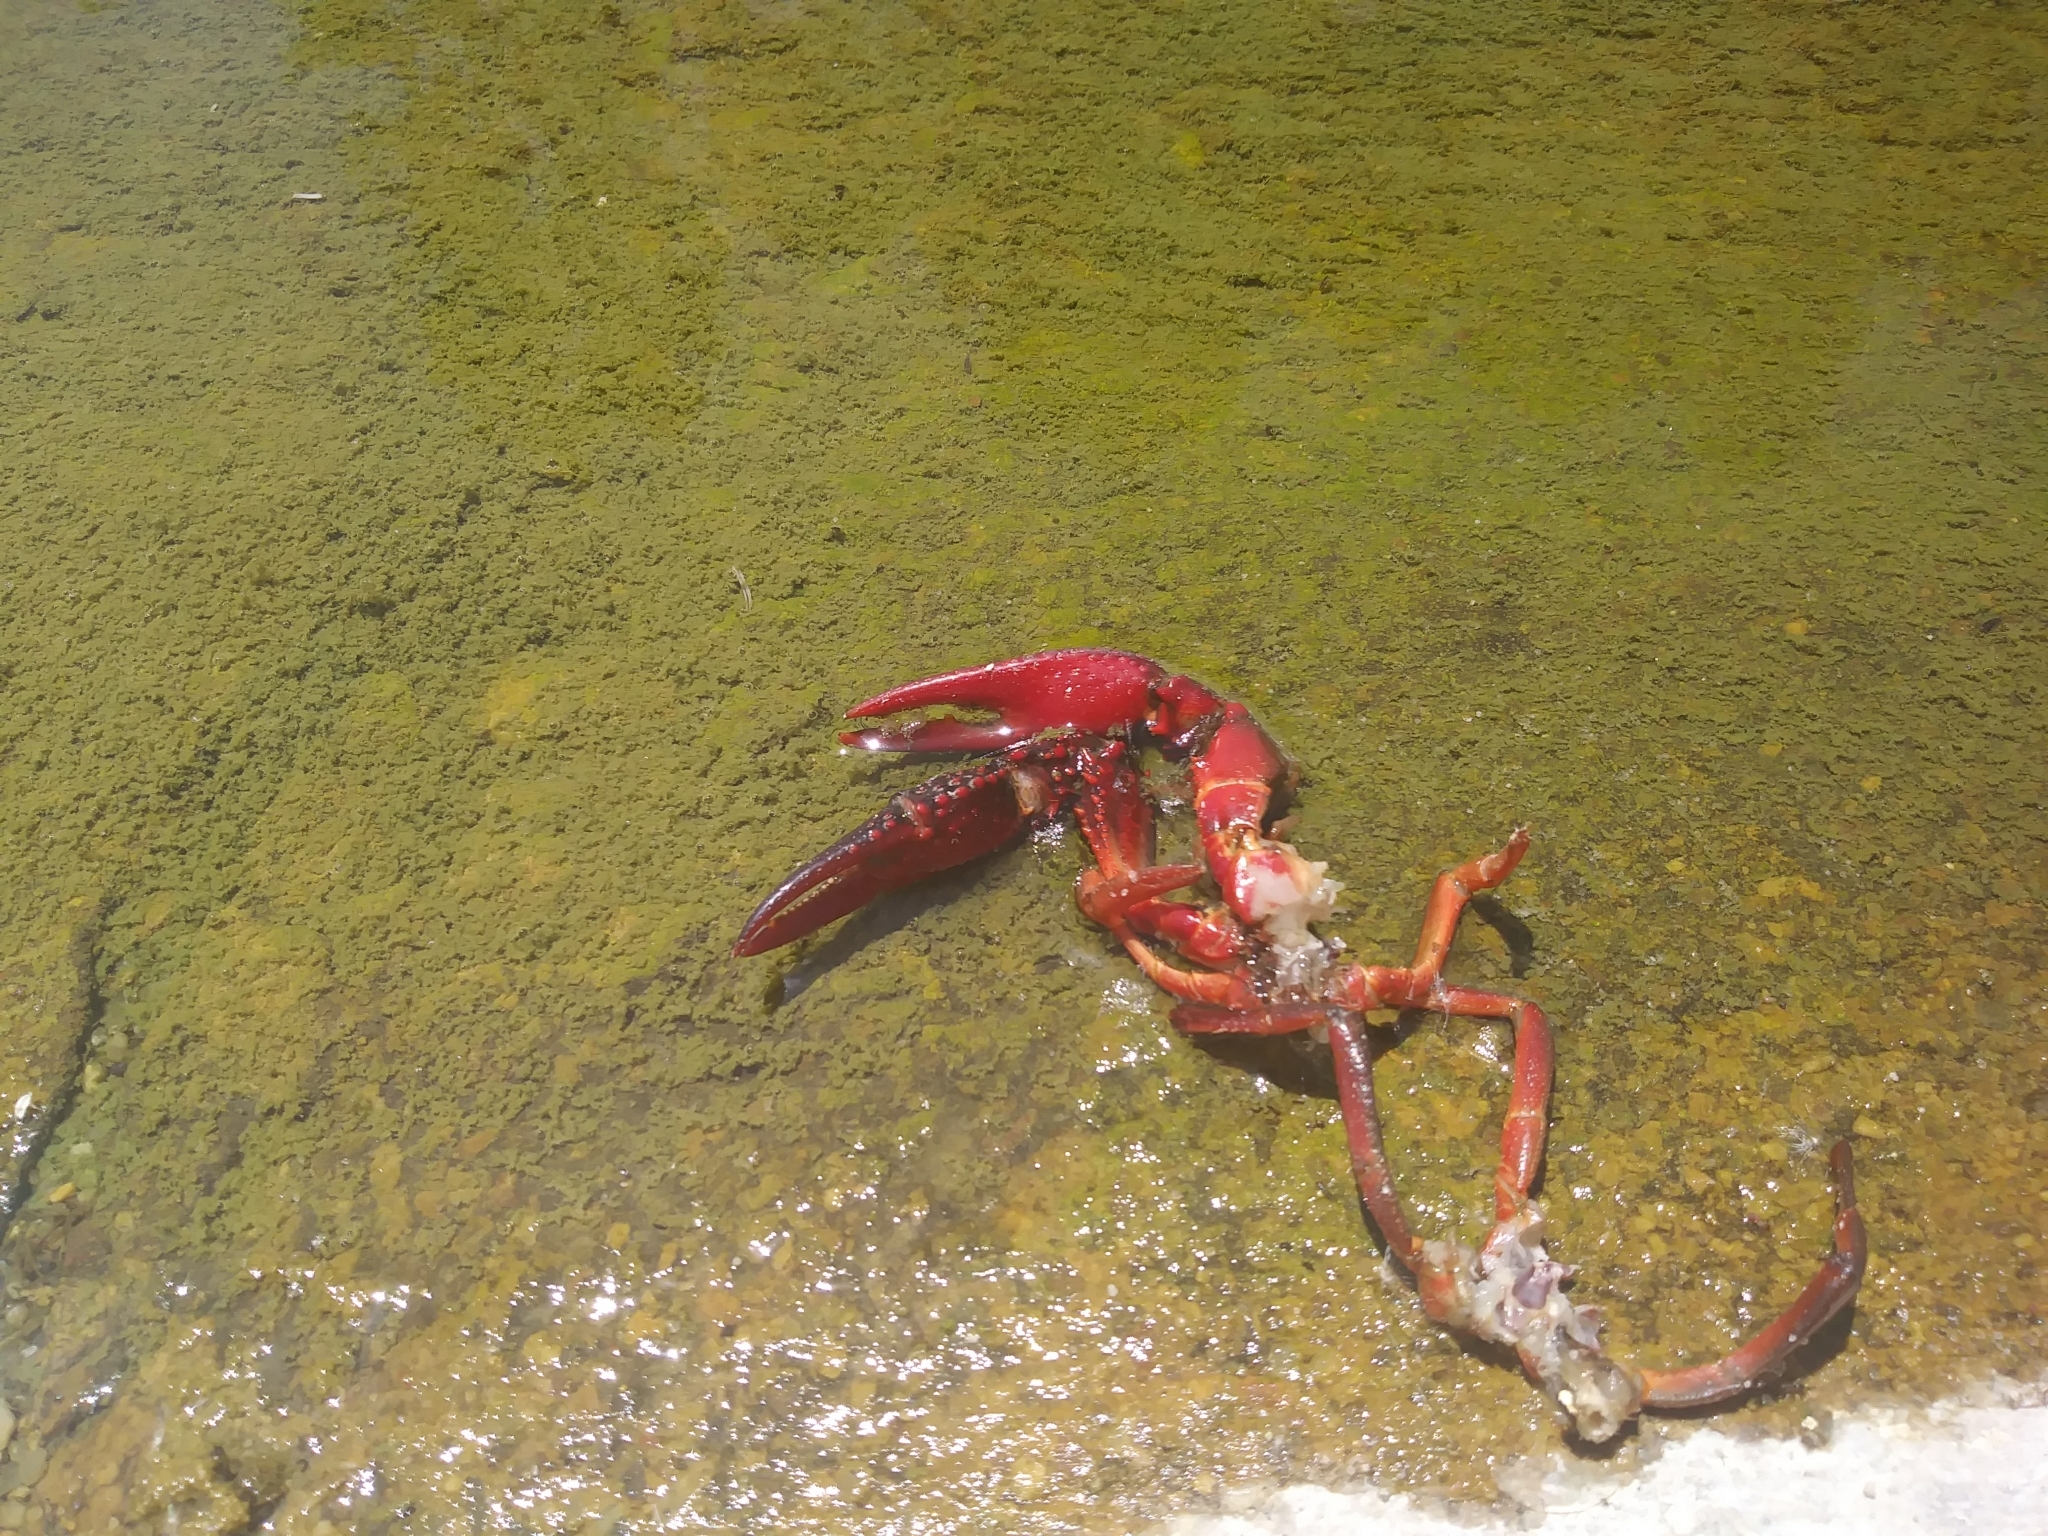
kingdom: Animalia
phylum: Arthropoda
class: Malacostraca
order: Decapoda
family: Cambaridae
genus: Procambarus
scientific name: Procambarus clarkii
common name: Red swamp crayfish
